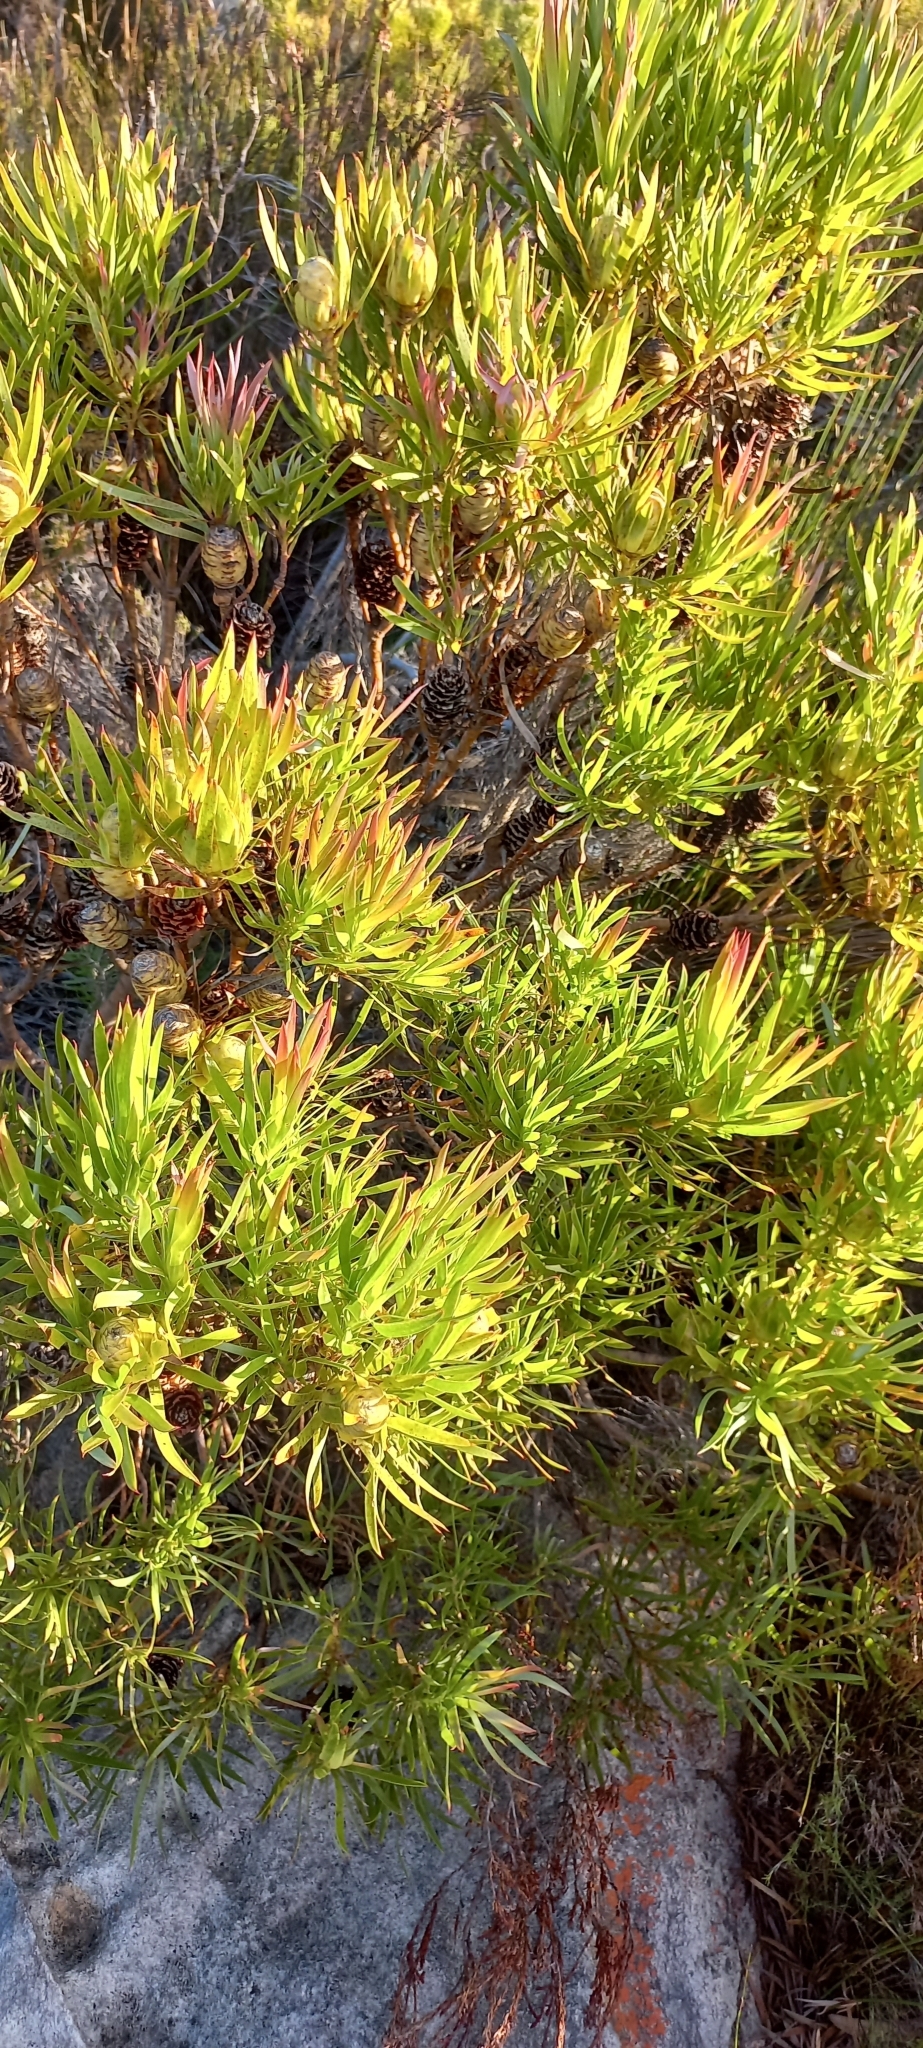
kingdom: Plantae
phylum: Tracheophyta
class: Magnoliopsida
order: Proteales
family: Proteaceae
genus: Leucadendron
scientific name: Leucadendron xanthoconus
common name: Sickle-leaf conebush
